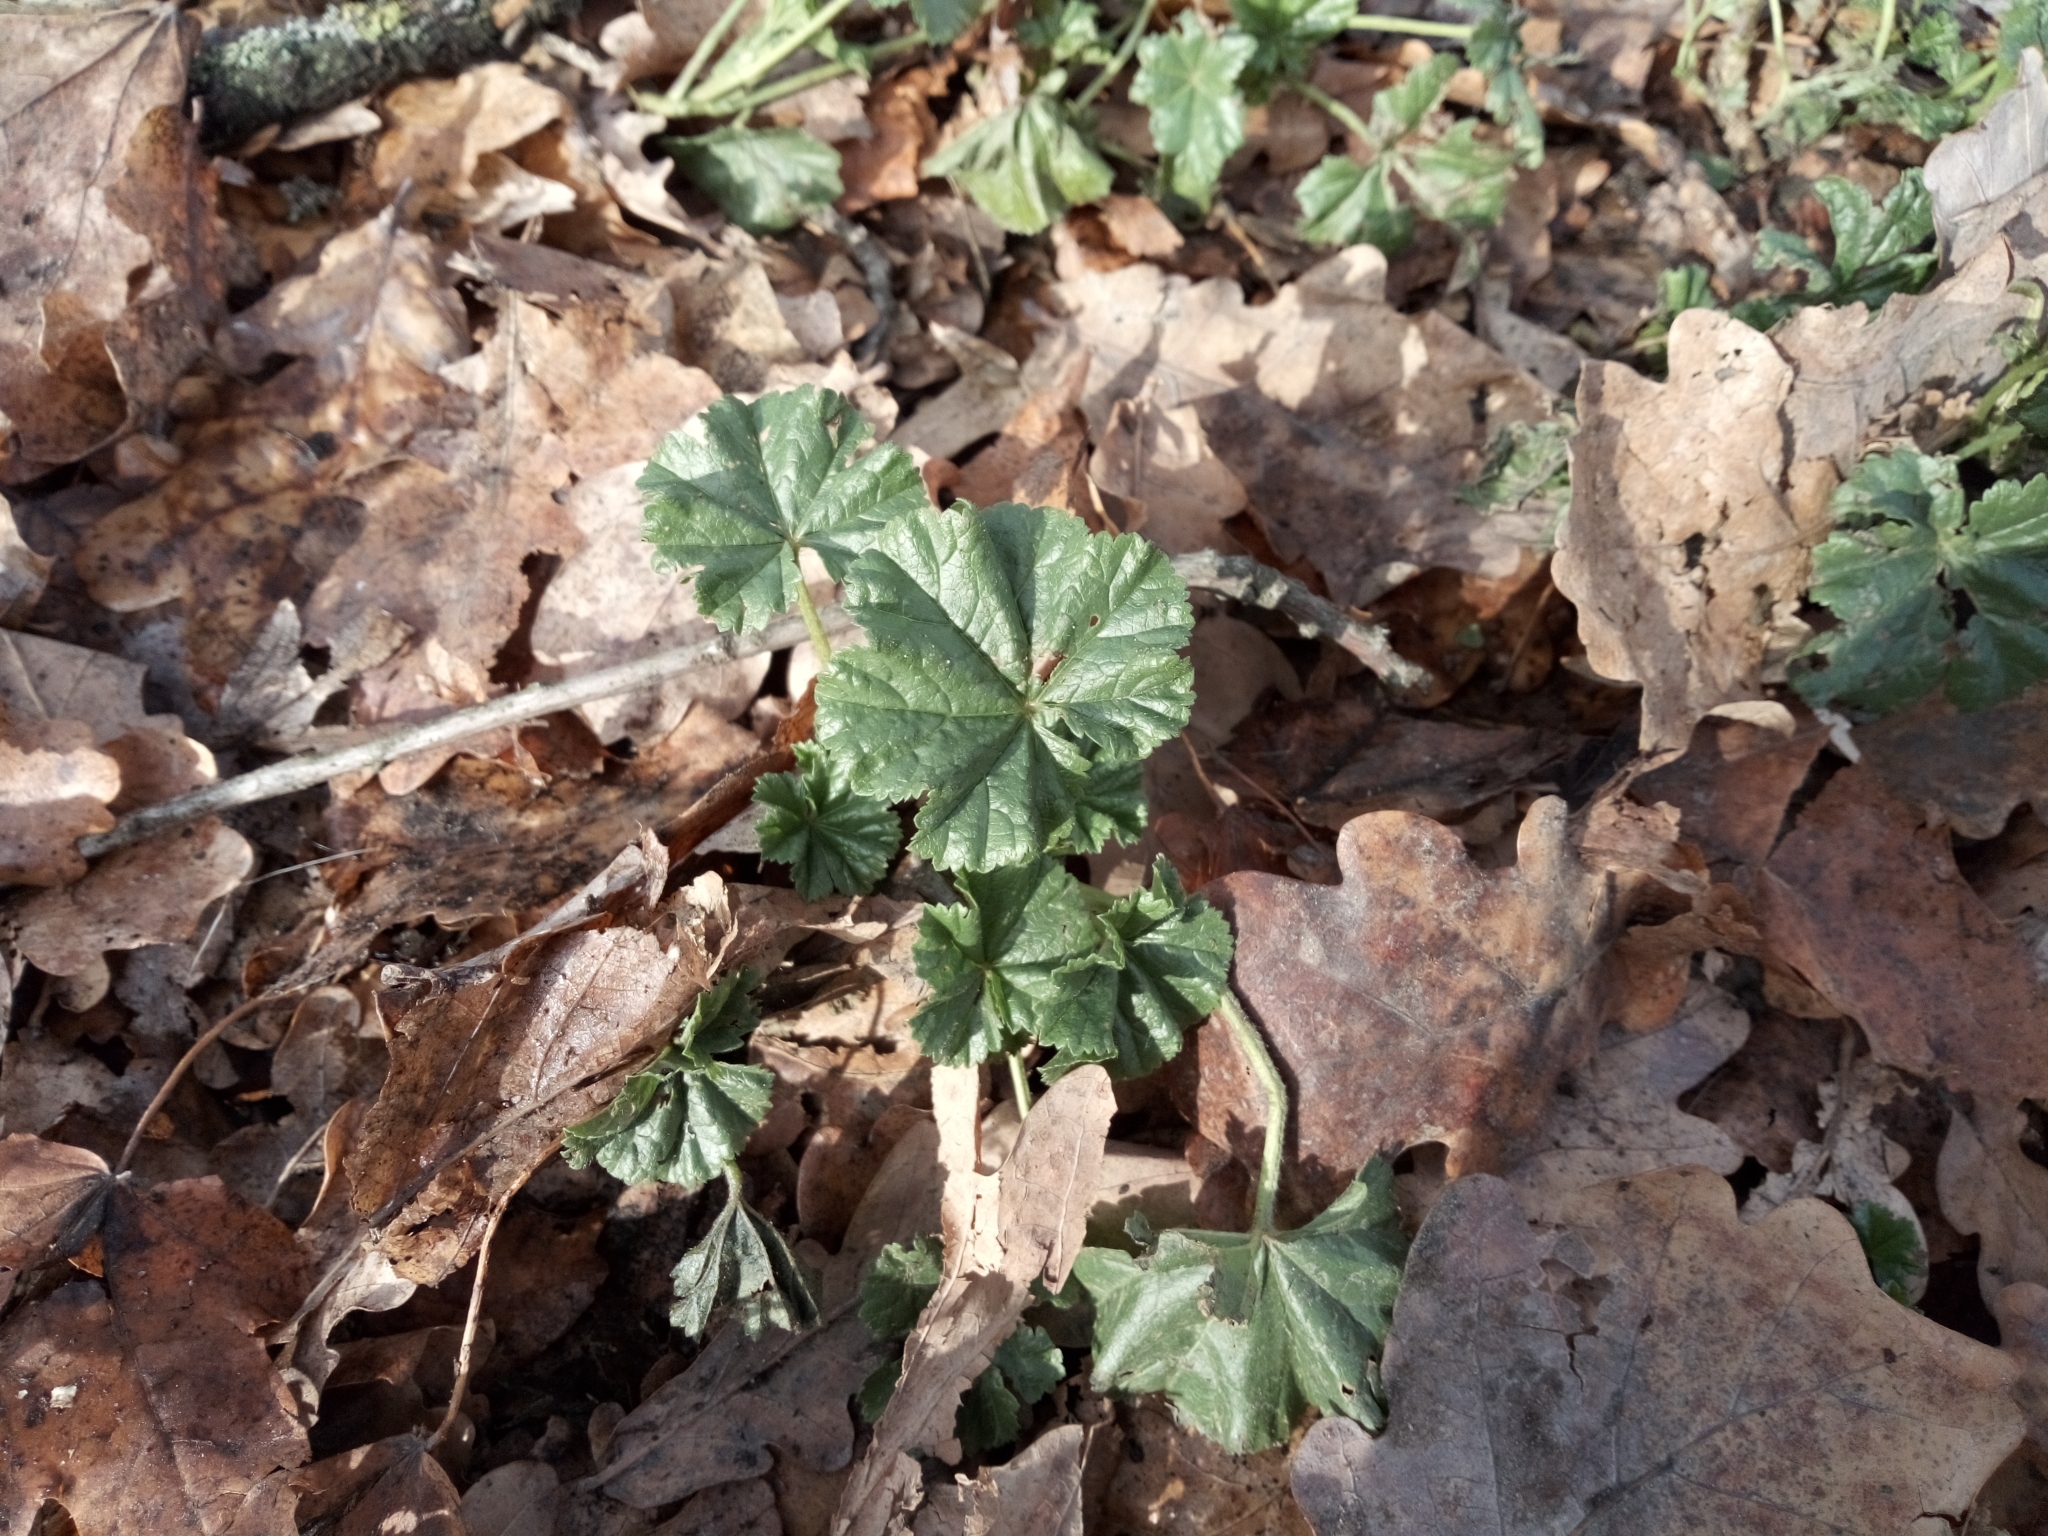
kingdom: Plantae
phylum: Tracheophyta
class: Magnoliopsida
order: Malvales
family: Malvaceae
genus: Malva
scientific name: Malva pusilla
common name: Small mallow
